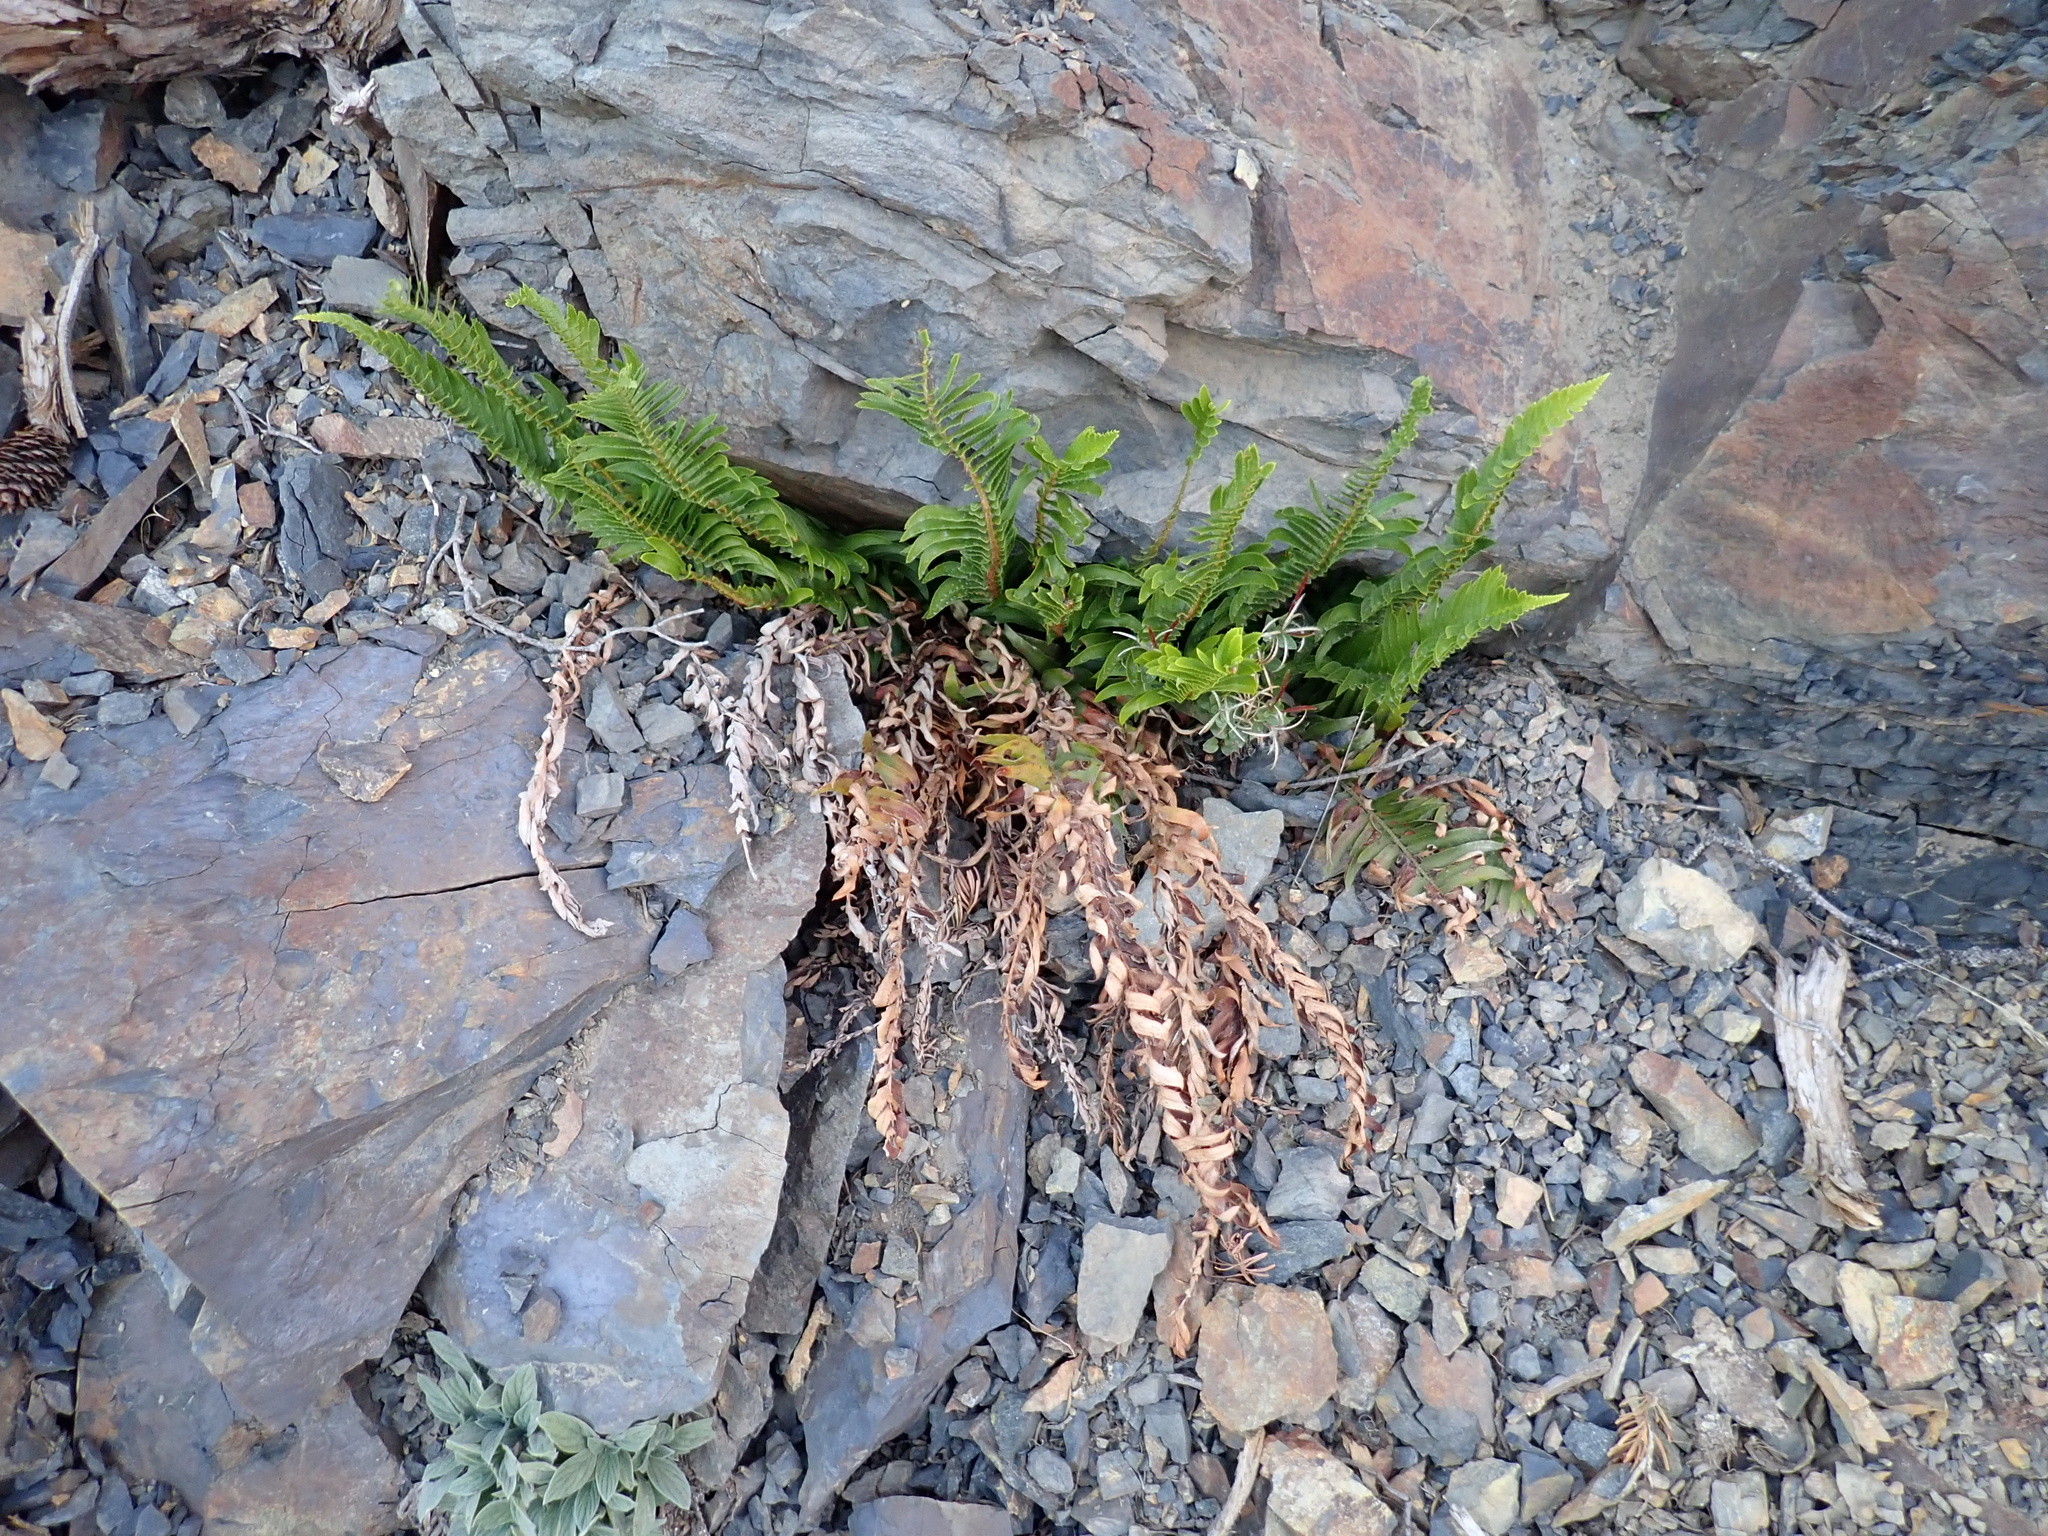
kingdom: Plantae
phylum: Tracheophyta
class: Polypodiopsida
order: Polypodiales
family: Dryopteridaceae
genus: Polystichum
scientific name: Polystichum munitum
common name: Western sword-fern
